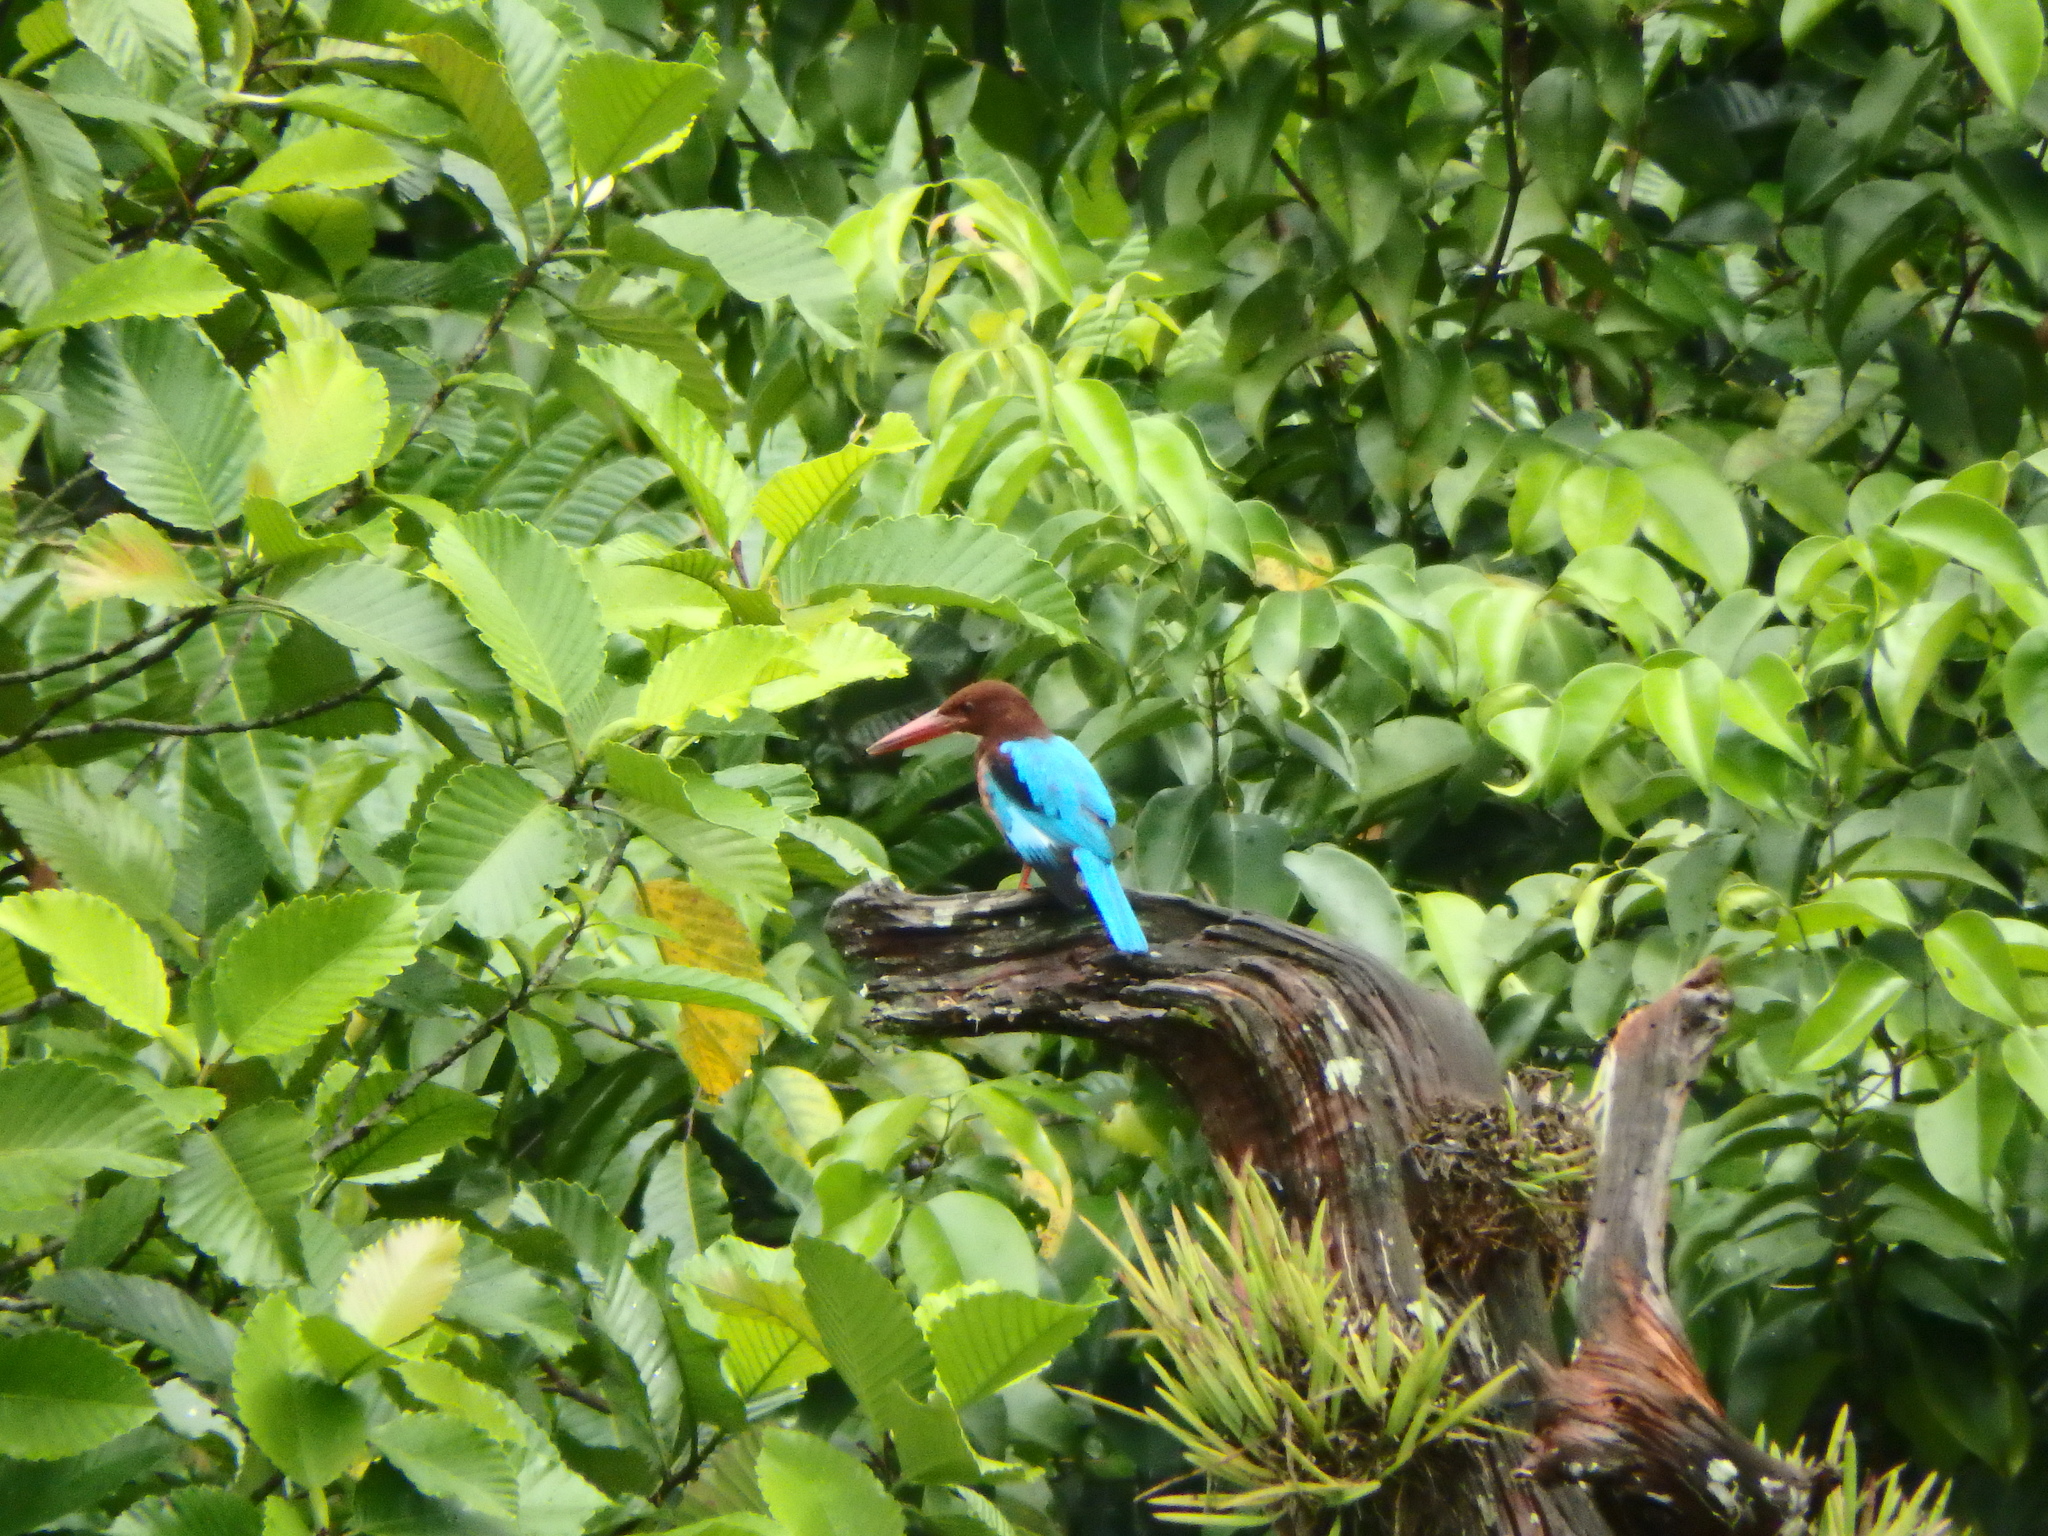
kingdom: Animalia
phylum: Chordata
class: Aves
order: Coraciiformes
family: Alcedinidae
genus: Halcyon
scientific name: Halcyon smyrnensis
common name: White-throated kingfisher
